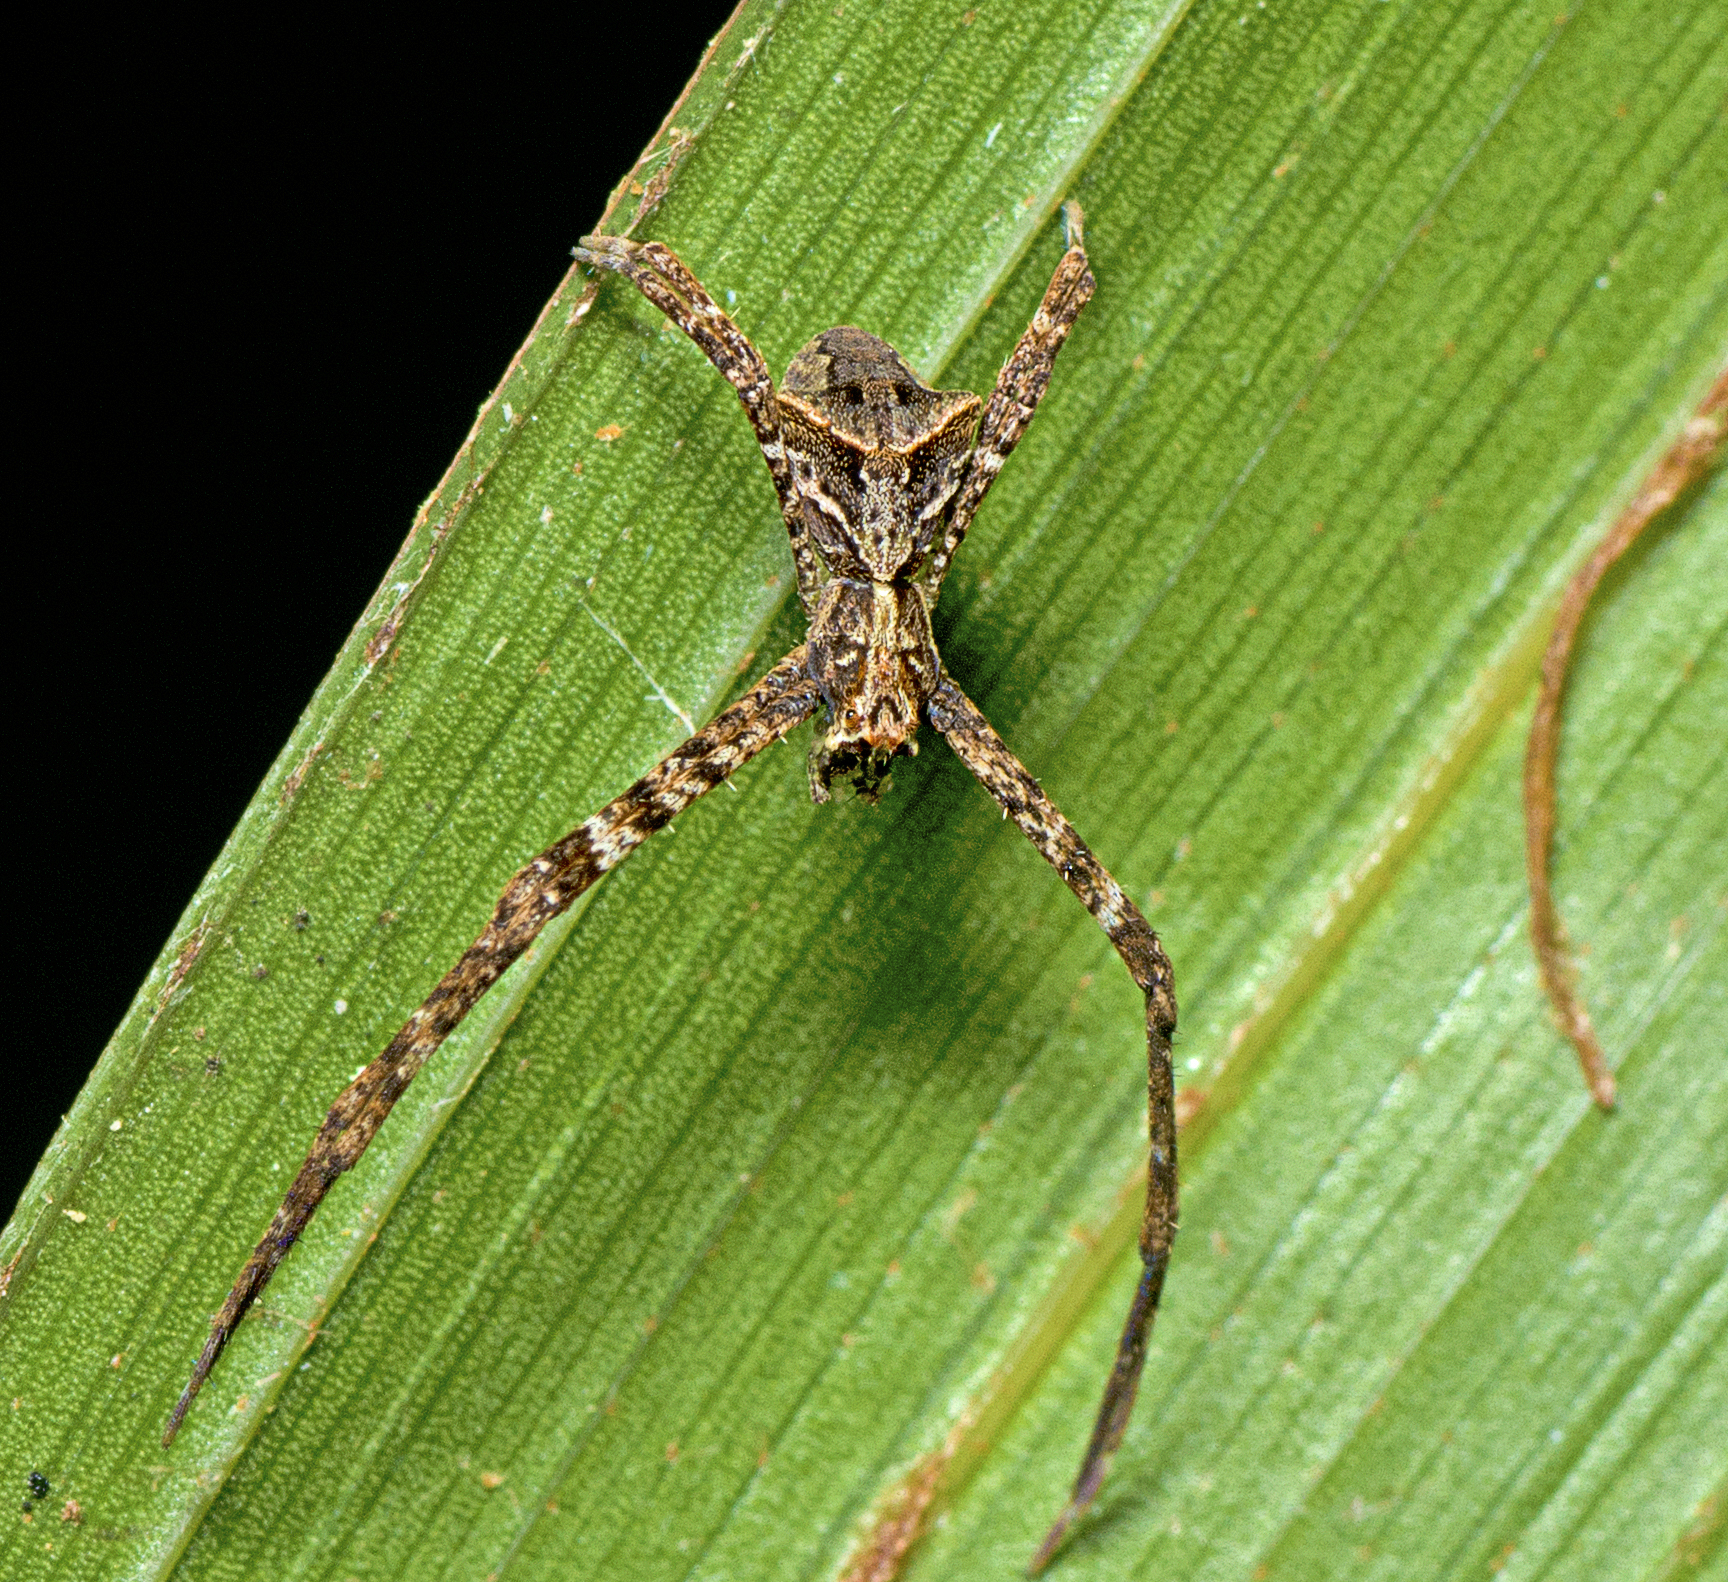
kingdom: Animalia
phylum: Arthropoda
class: Arachnida
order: Araneae
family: Deinopidae
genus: Menneus
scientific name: Menneus nemesio
